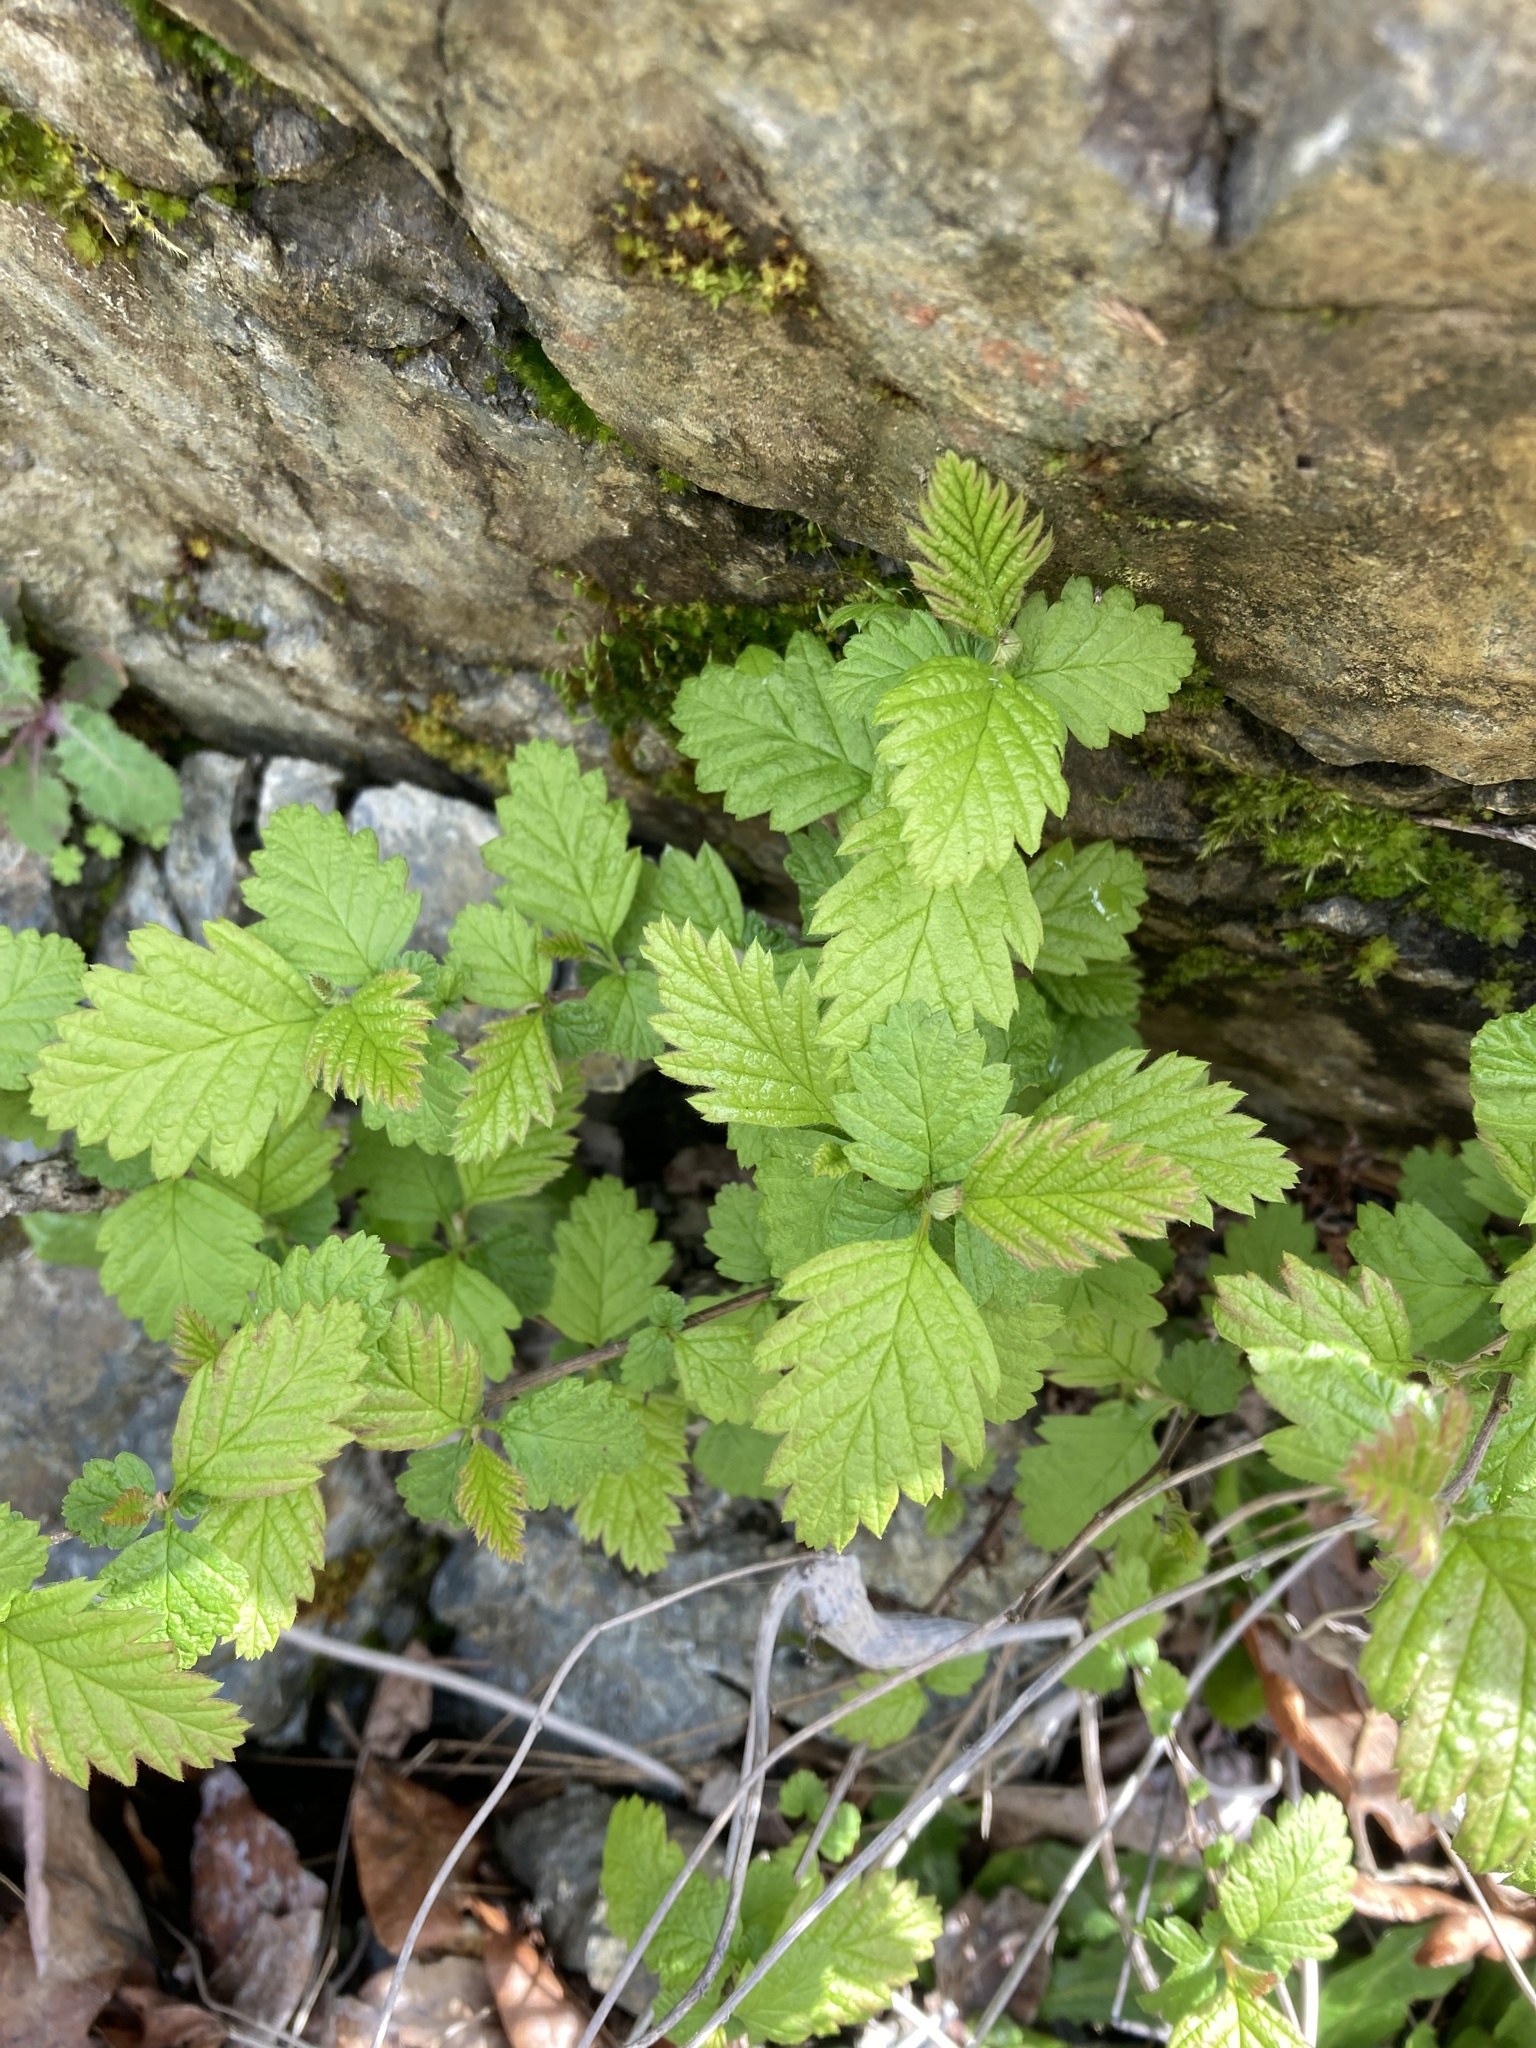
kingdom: Plantae
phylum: Tracheophyta
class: Magnoliopsida
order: Rosales
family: Rosaceae
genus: Holodiscus
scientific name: Holodiscus discolor
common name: Oceanspray
